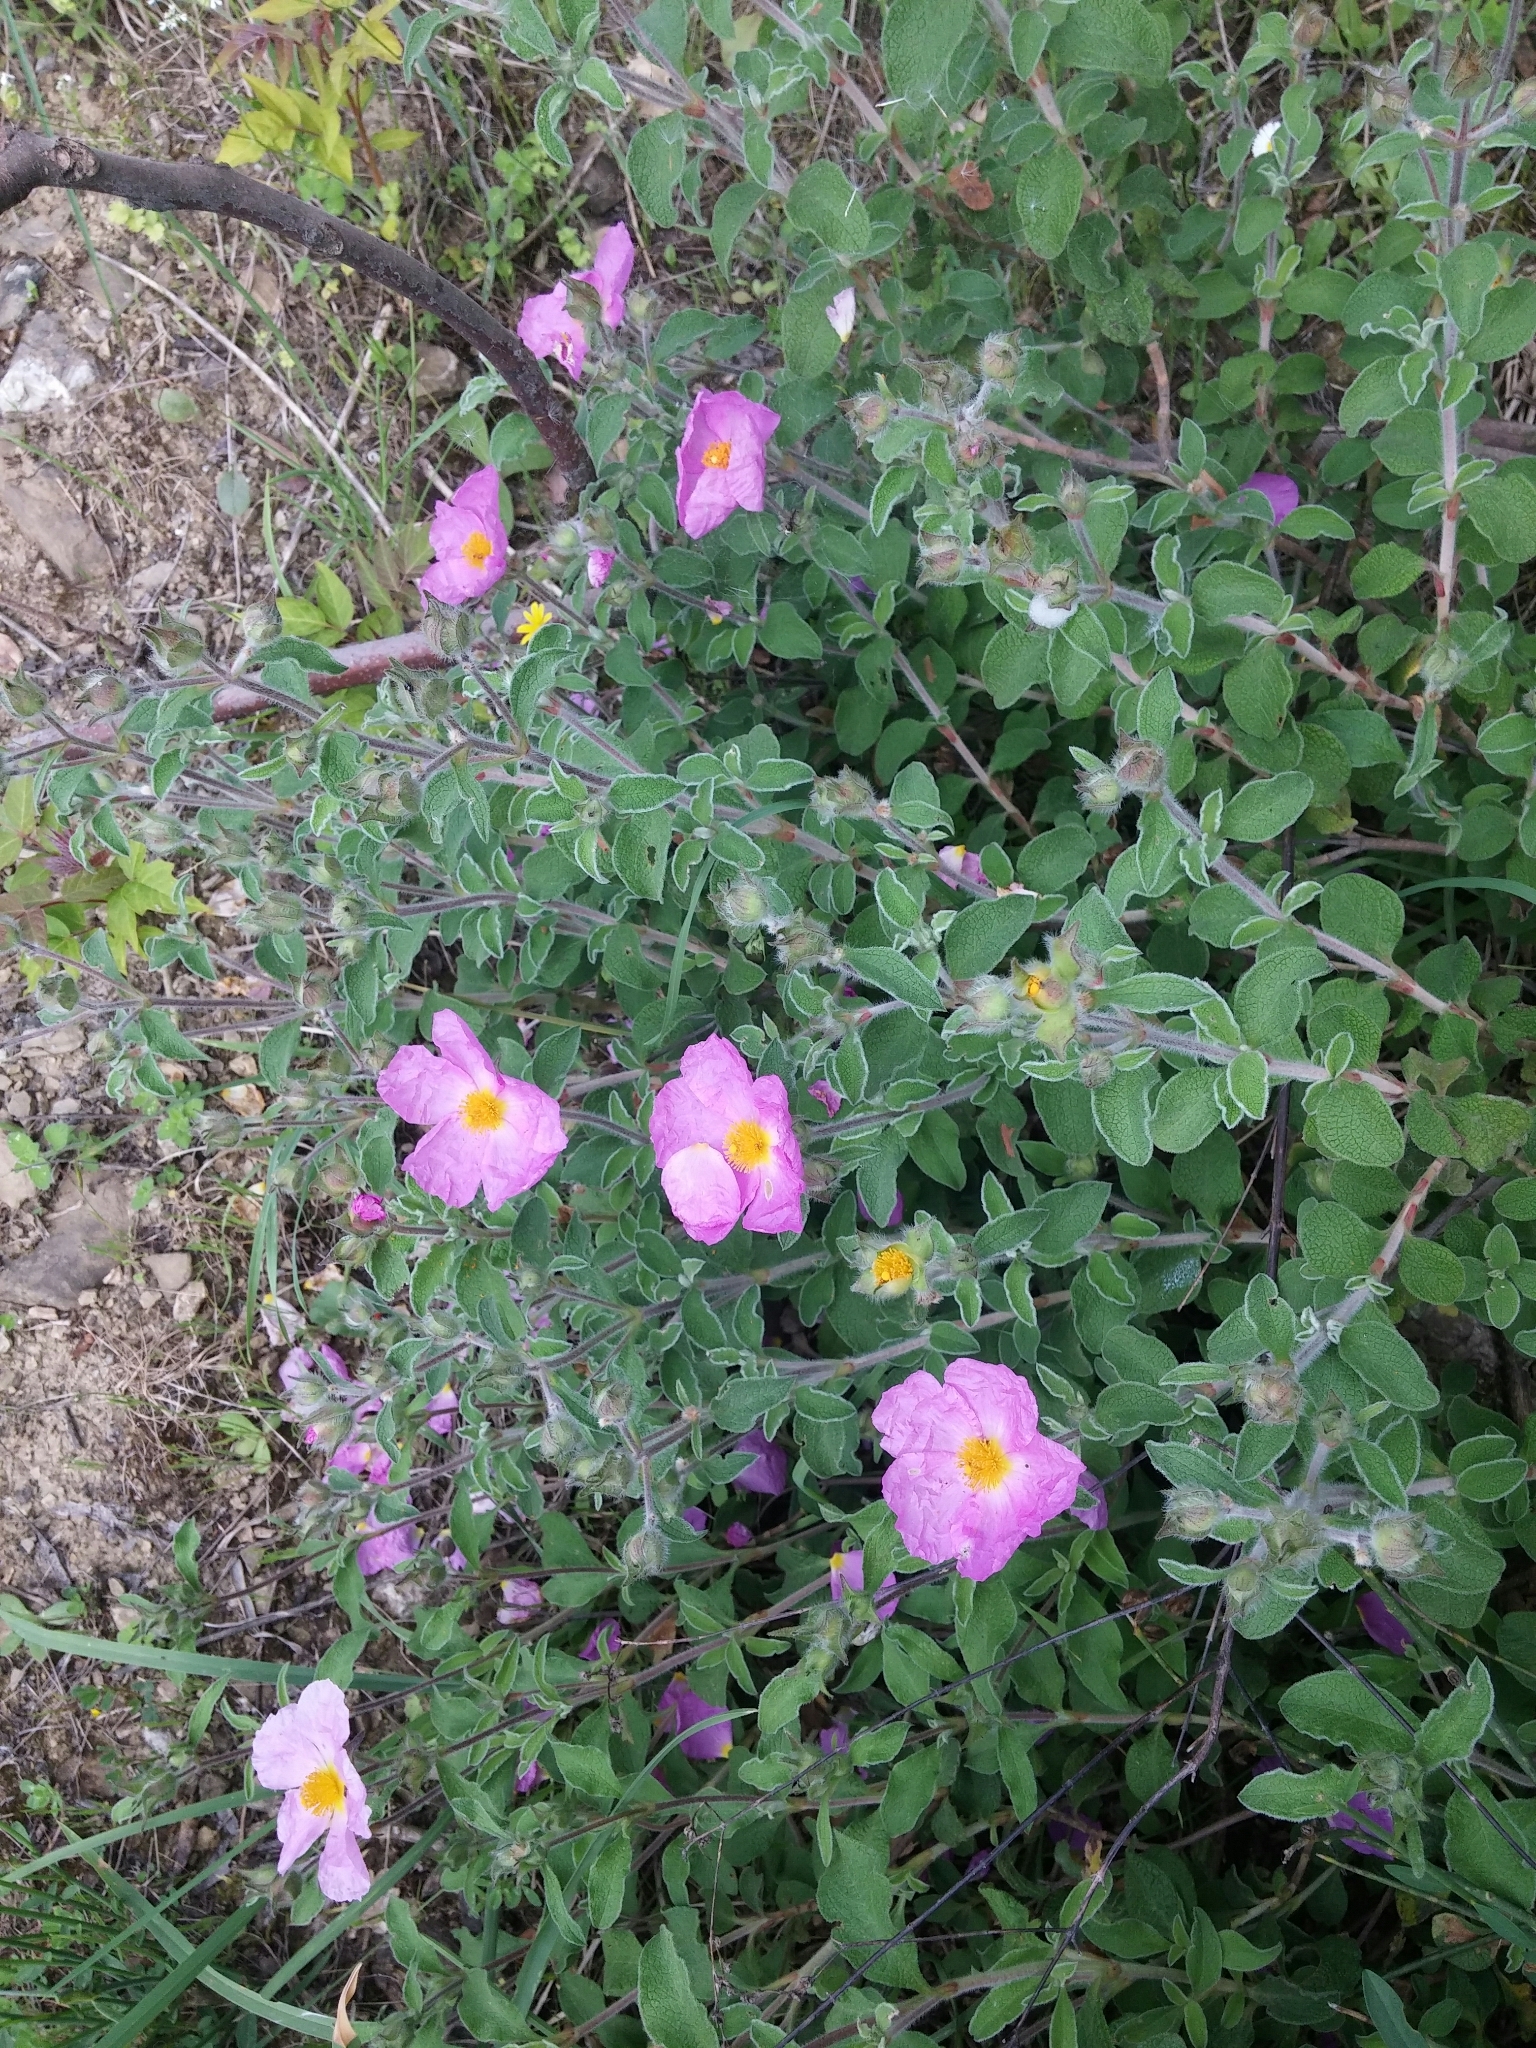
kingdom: Plantae
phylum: Tracheophyta
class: Magnoliopsida
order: Malvales
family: Cistaceae
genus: Cistus
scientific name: Cistus creticus
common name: Cretan rockrose
